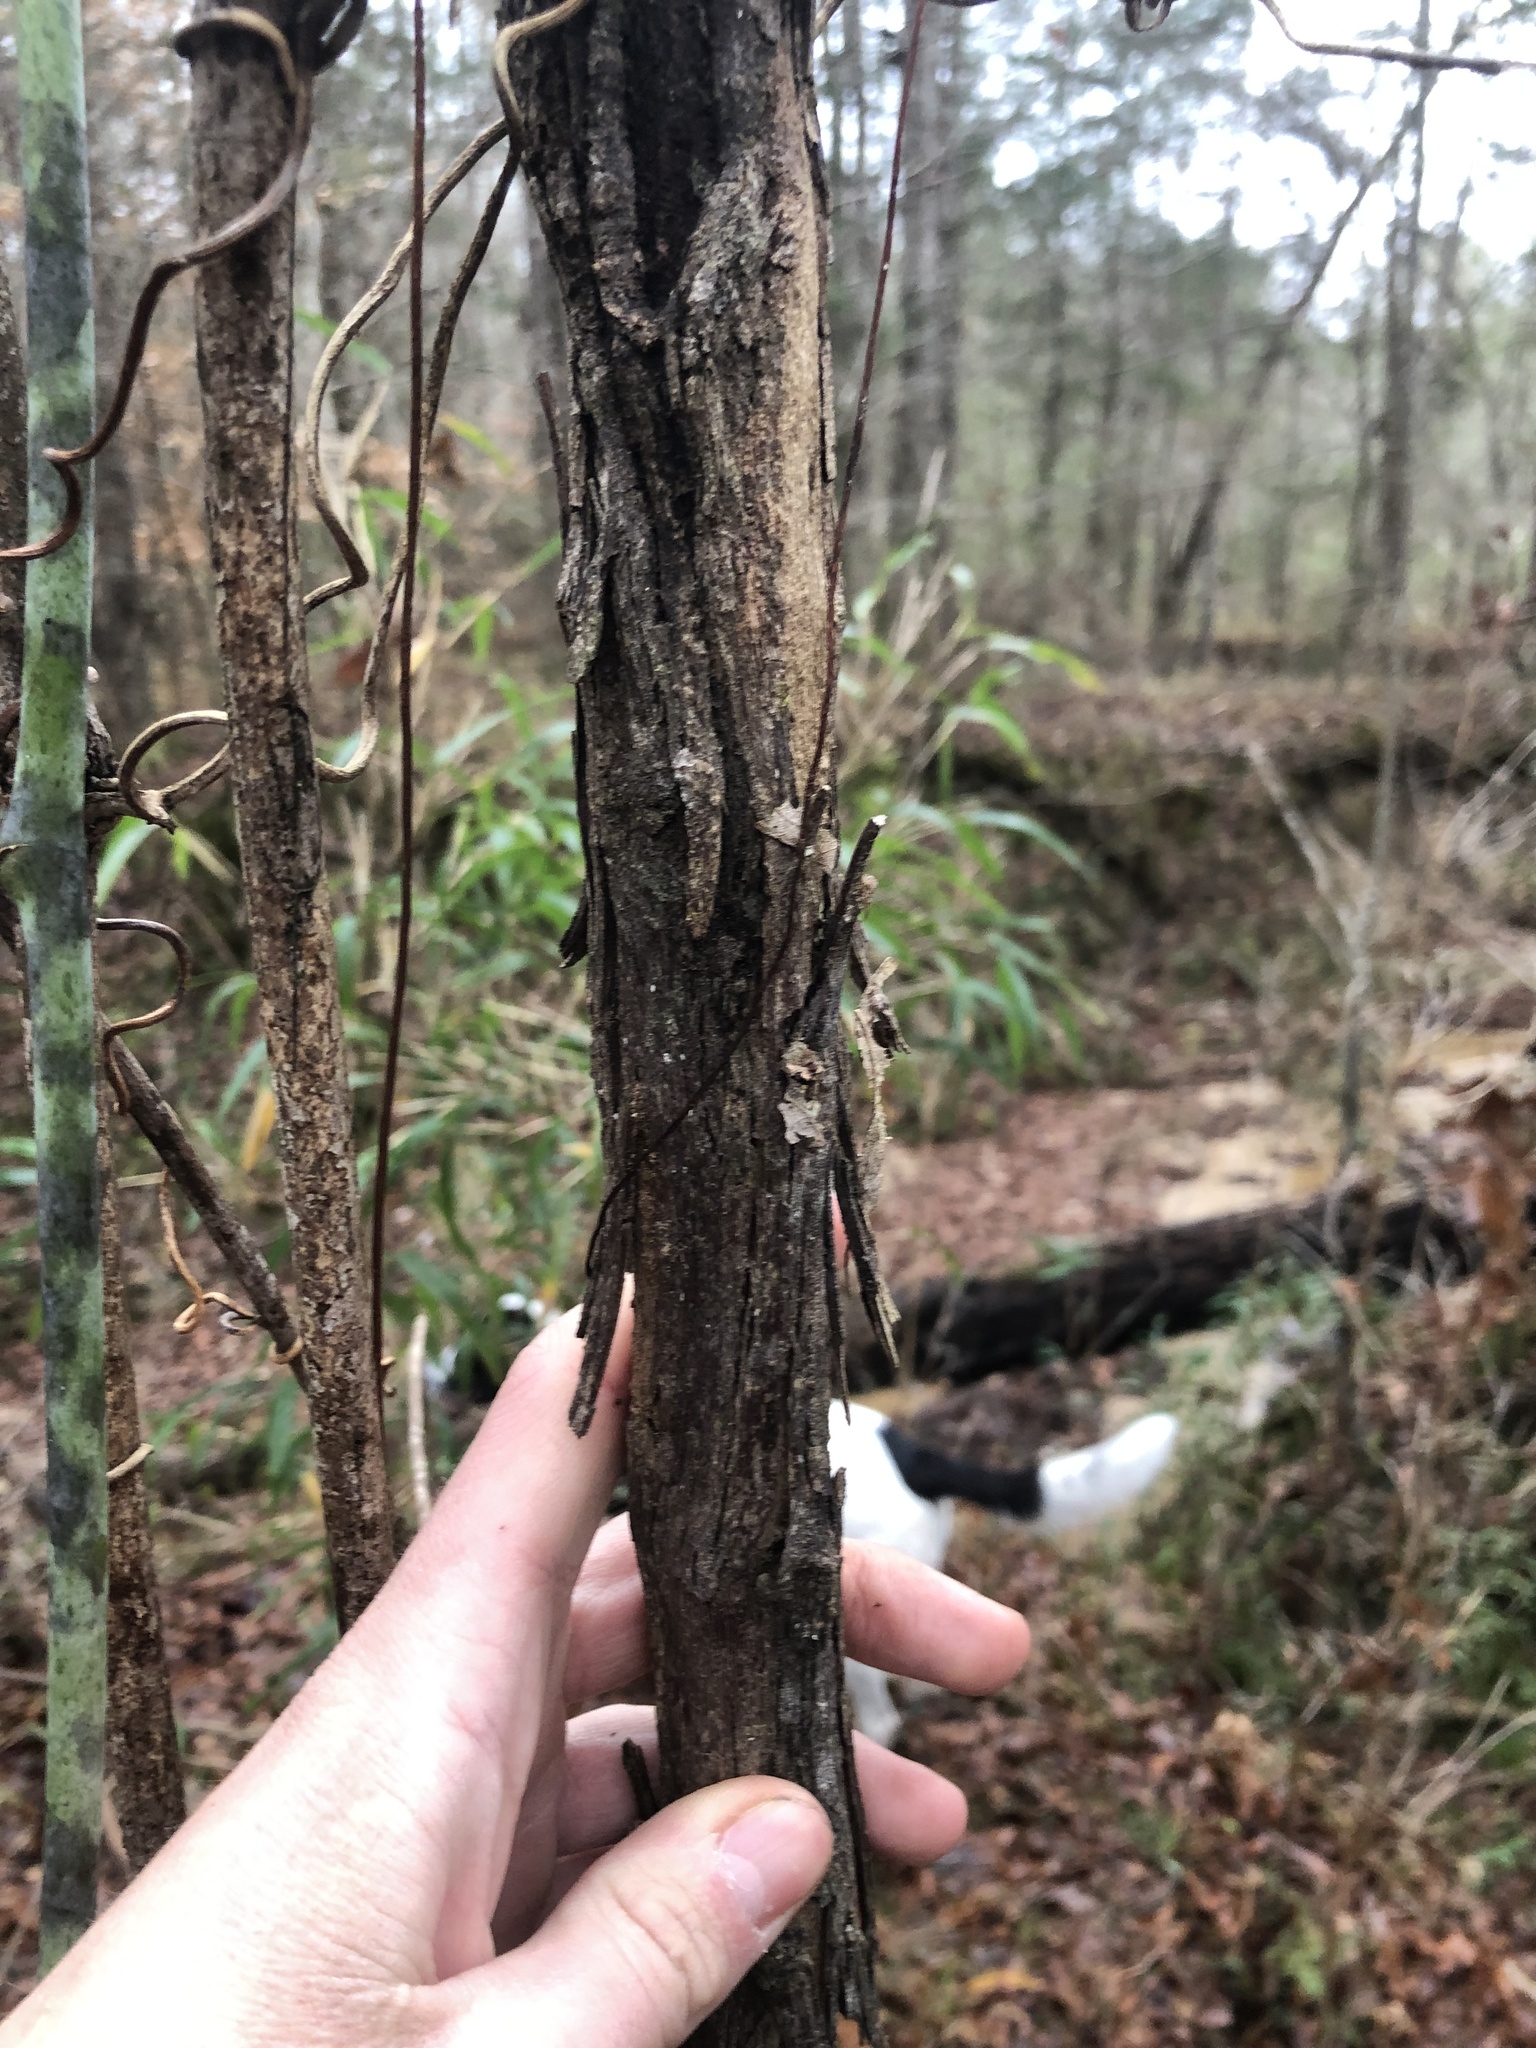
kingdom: Plantae
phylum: Tracheophyta
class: Magnoliopsida
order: Vitales
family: Vitaceae
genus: Vitis
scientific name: Vitis rotundifolia
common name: Muscadine grape
